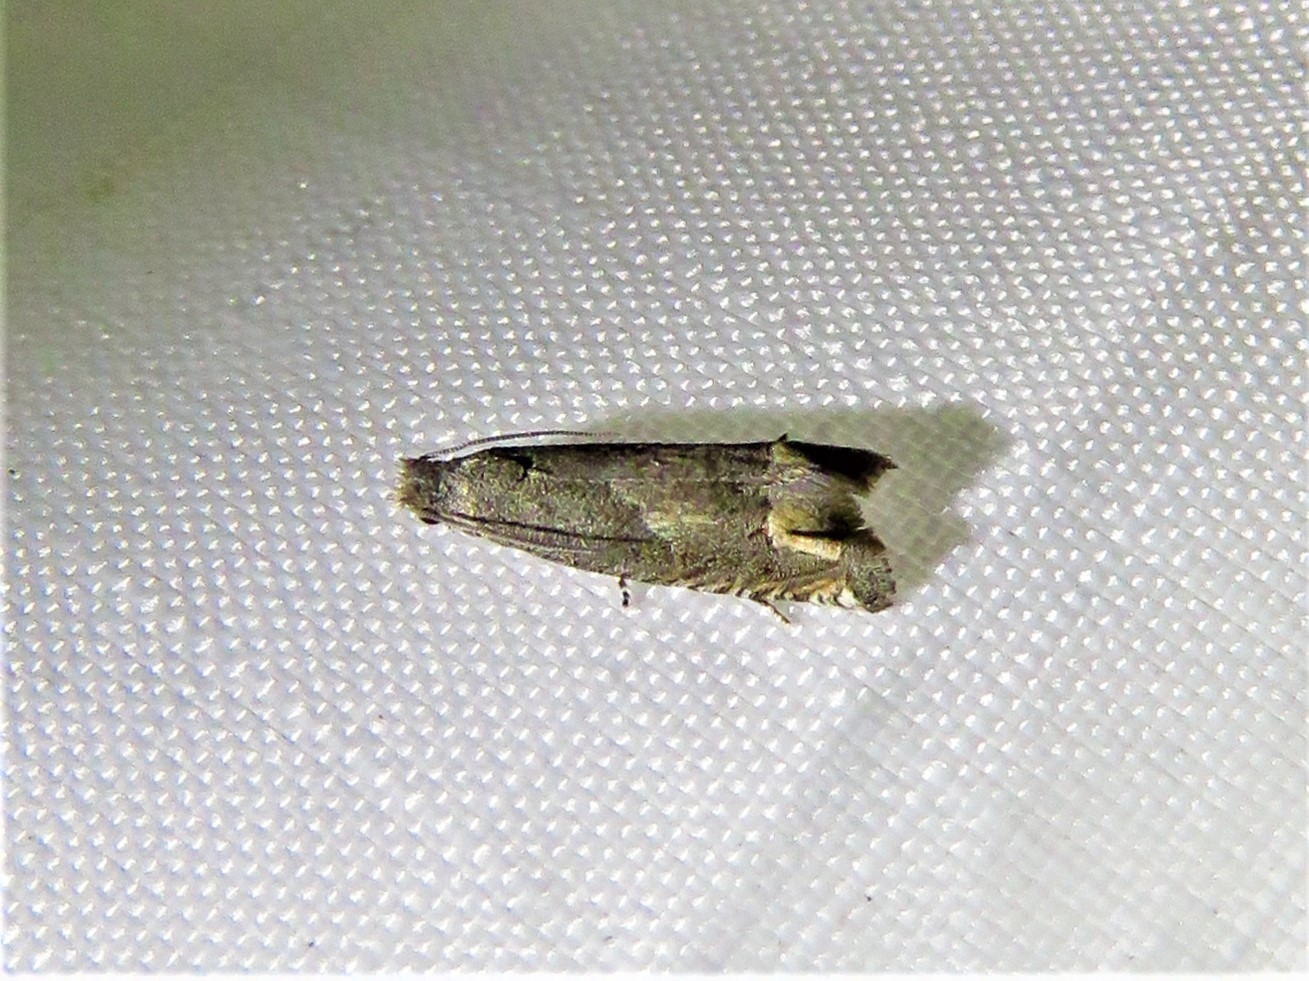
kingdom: Animalia
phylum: Arthropoda
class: Insecta
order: Lepidoptera
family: Tortricidae
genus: Epiblema
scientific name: Epiblema strenuana
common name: Ragweed borer moth
